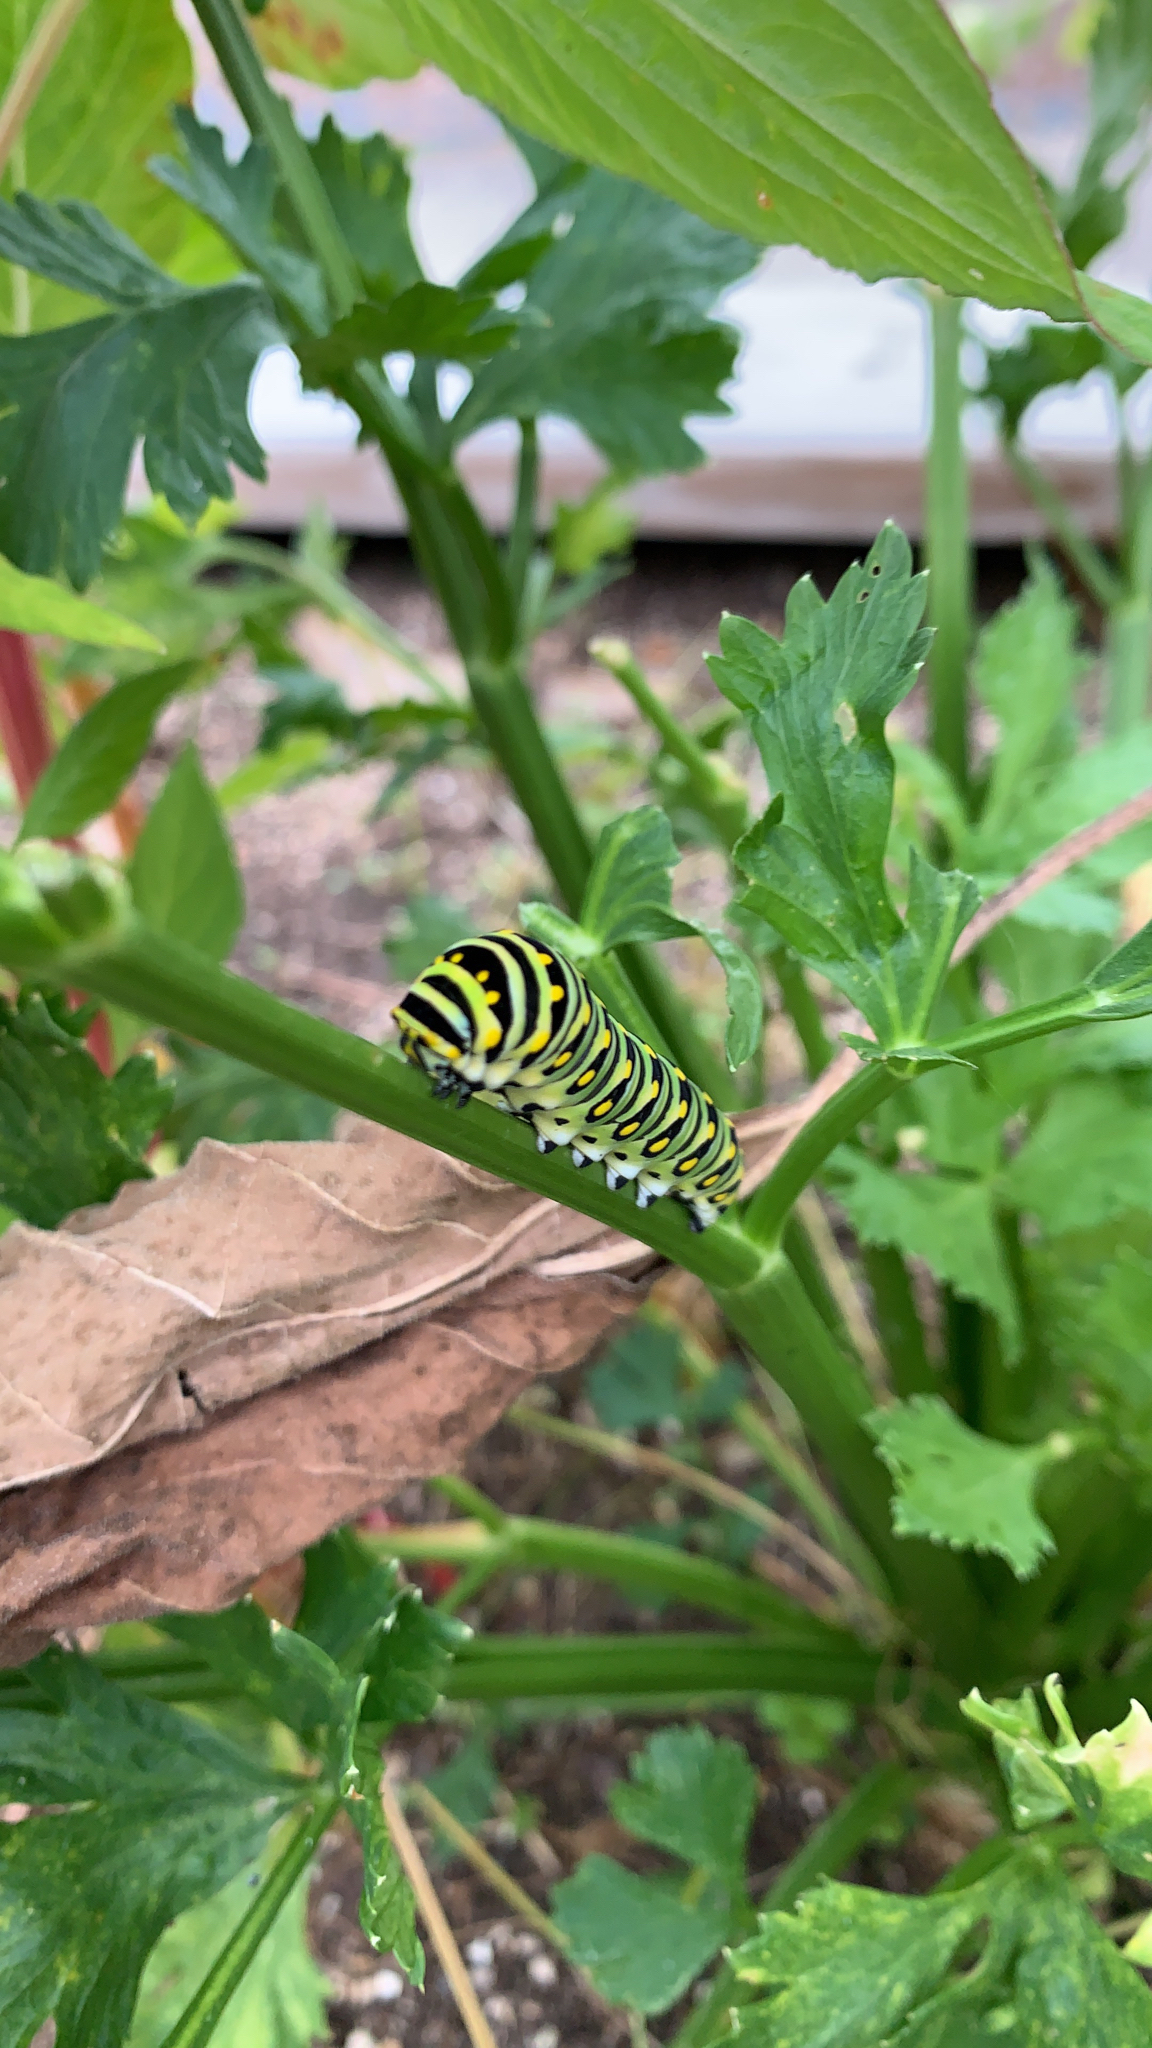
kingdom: Animalia
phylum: Arthropoda
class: Insecta
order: Lepidoptera
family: Papilionidae
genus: Papilio
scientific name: Papilio polyxenes
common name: Black swallowtail
